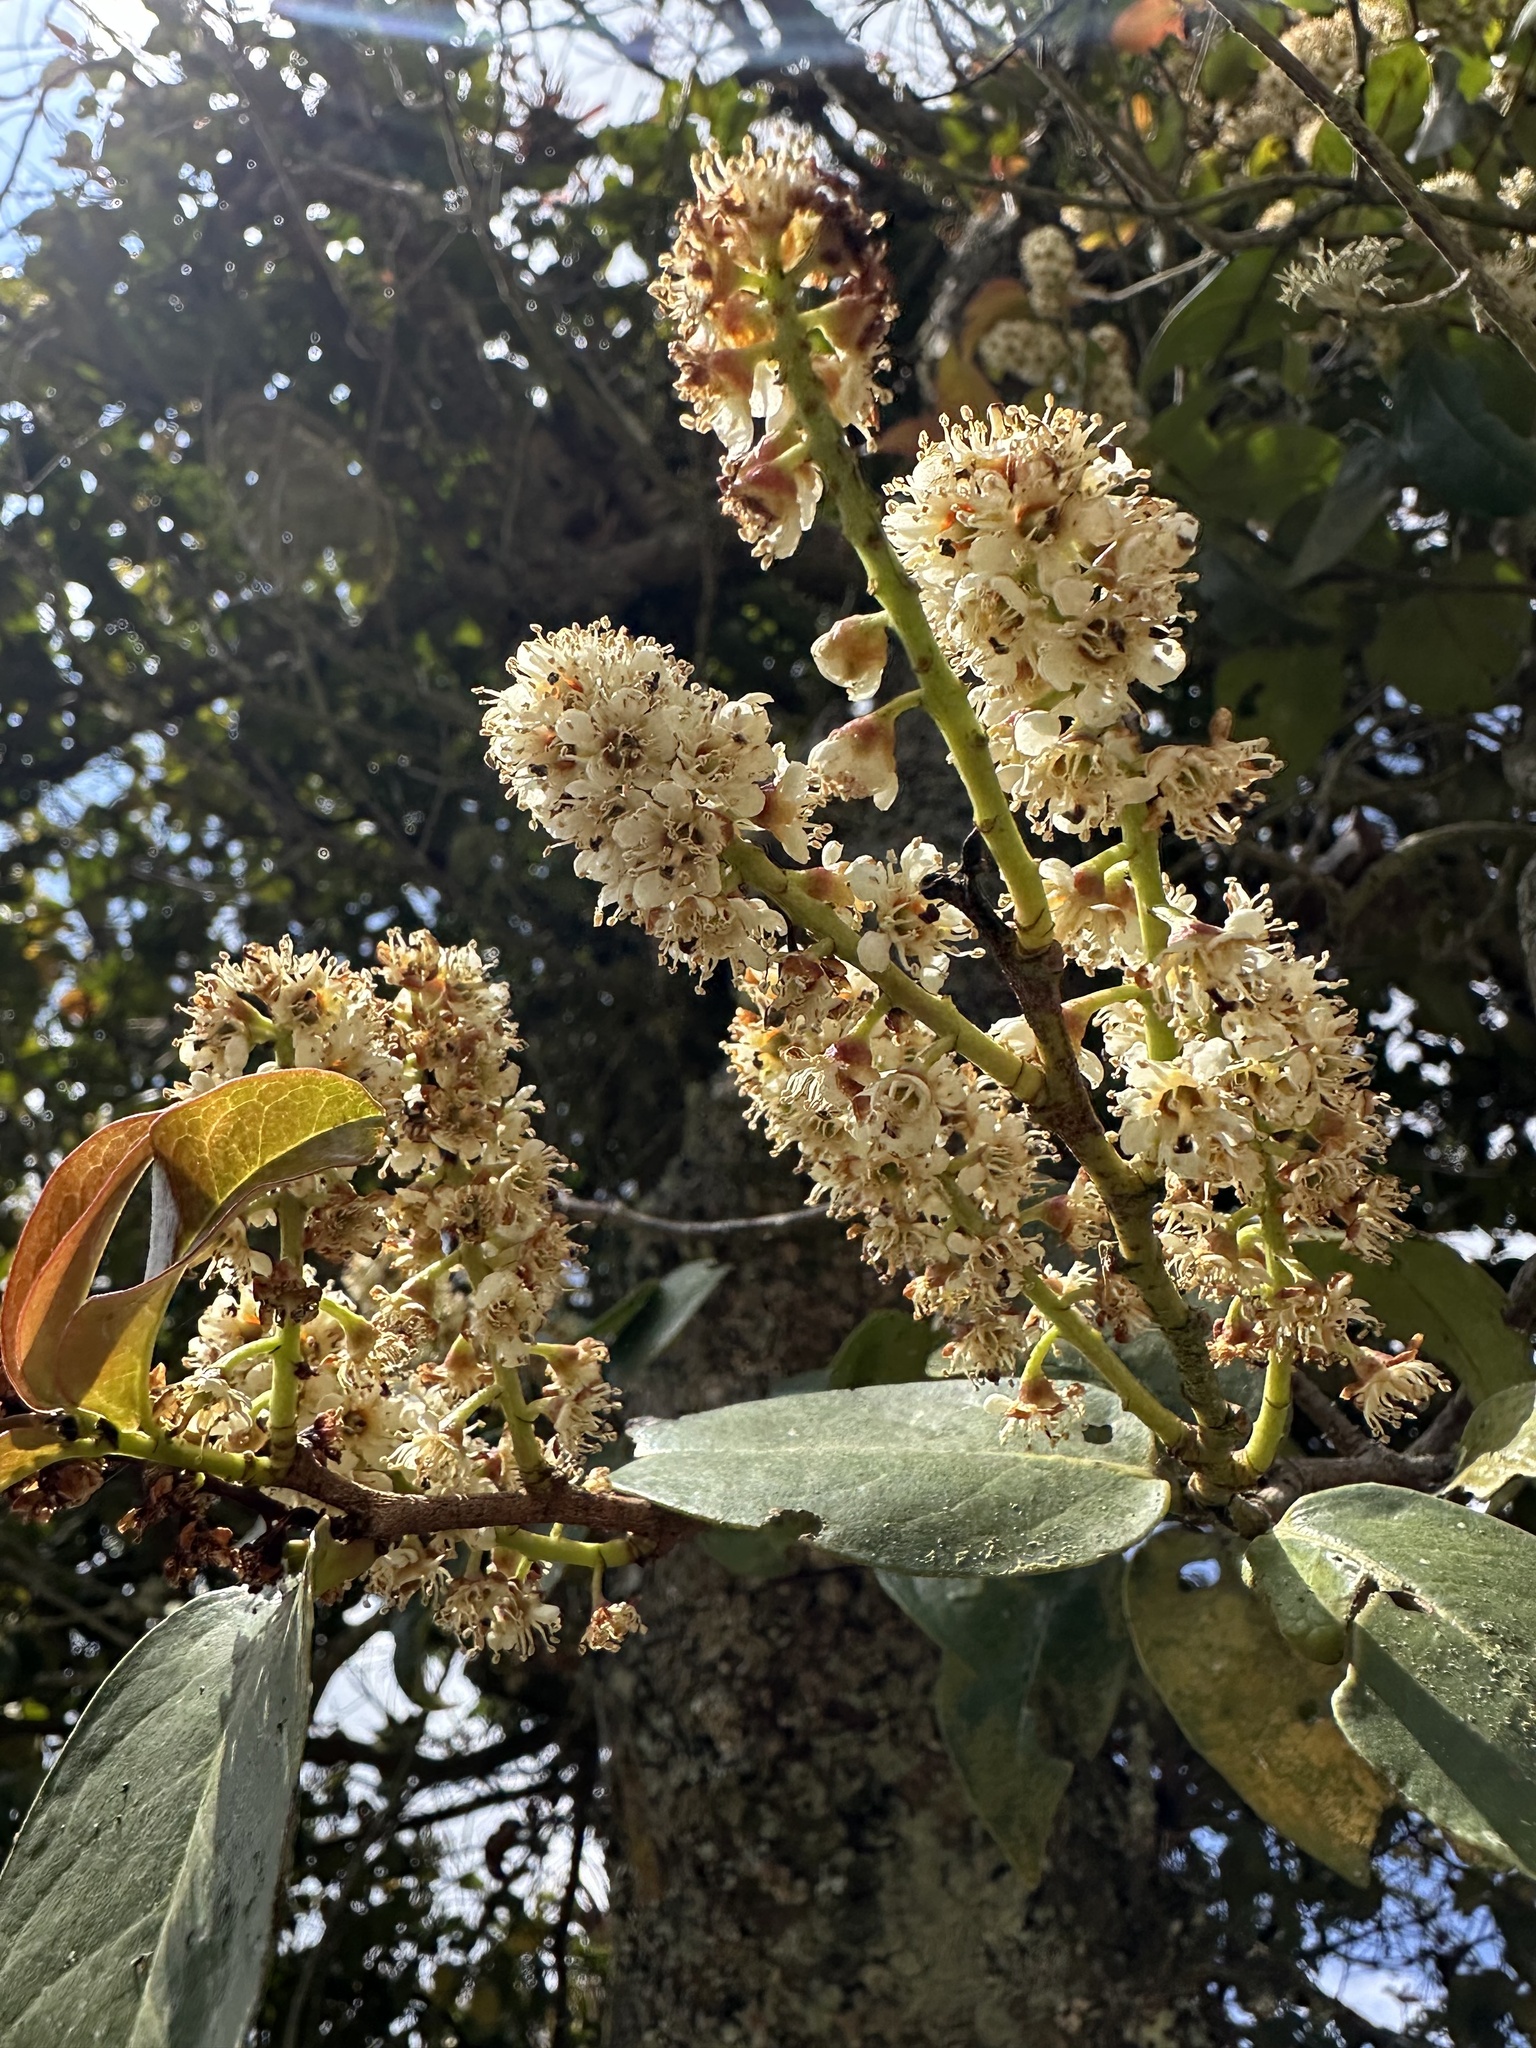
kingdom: Plantae
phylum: Tracheophyta
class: Magnoliopsida
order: Rosales
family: Rosaceae
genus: Prunus
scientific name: Prunus buxifolia
